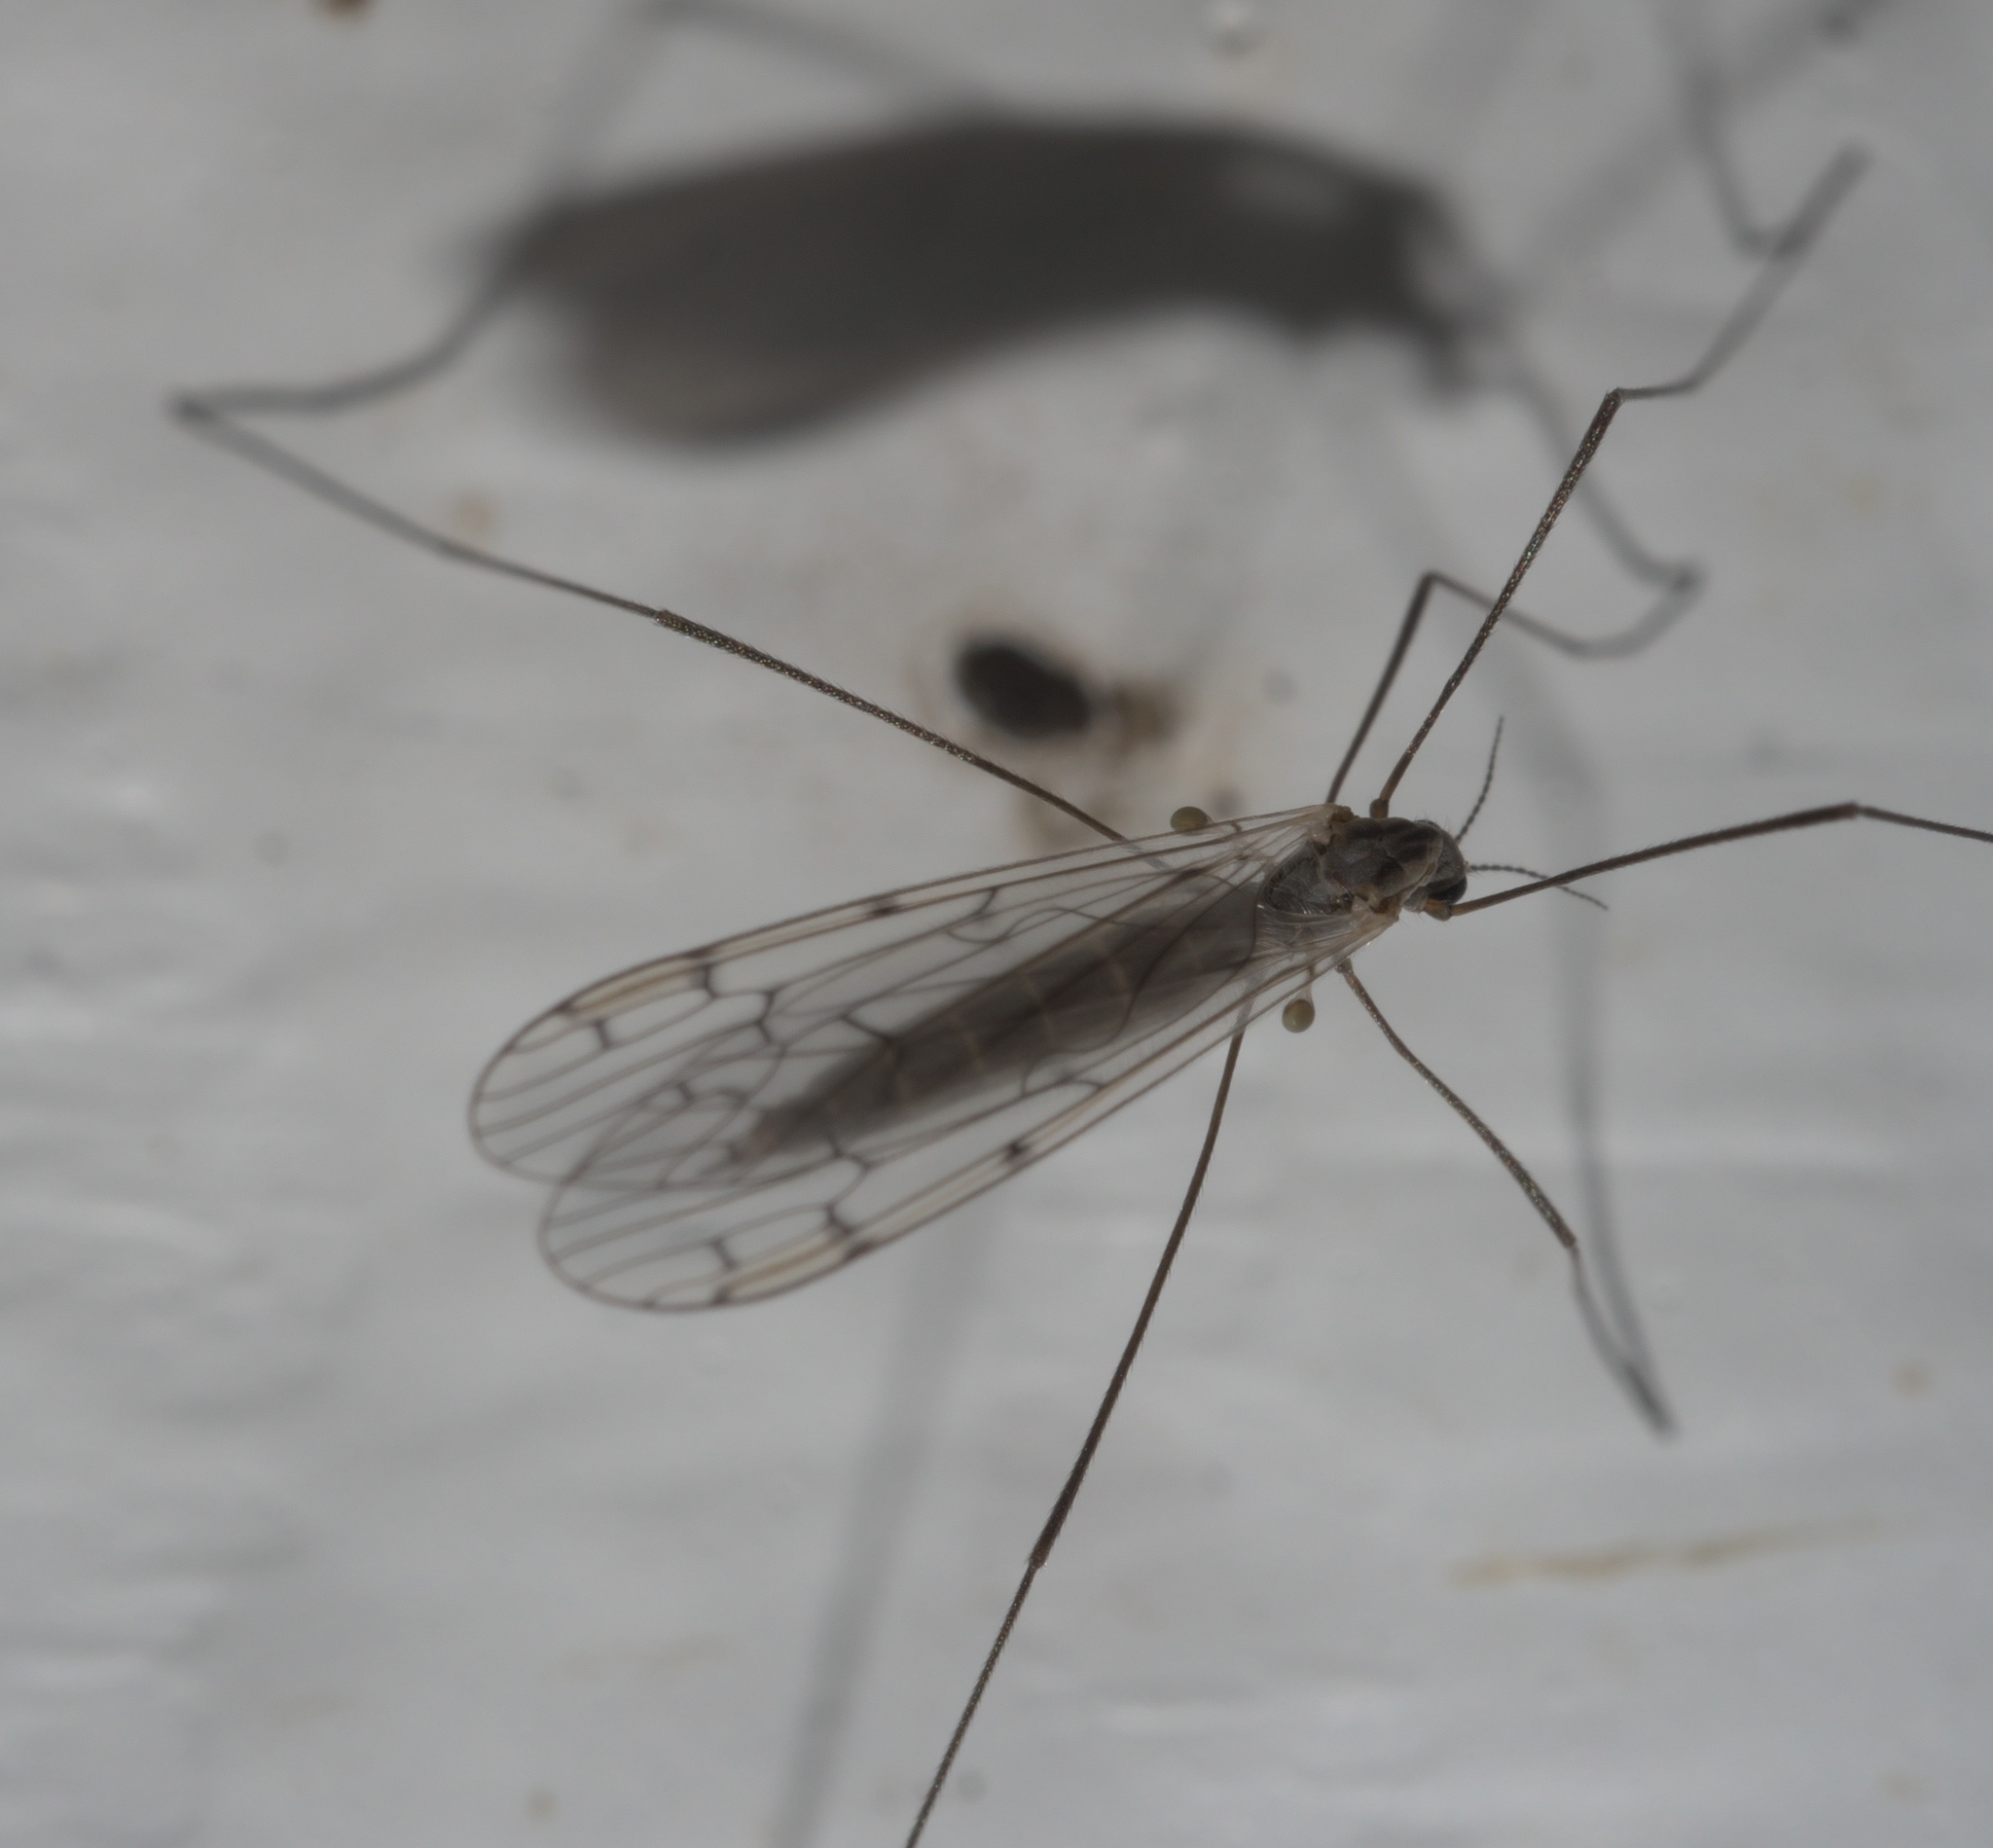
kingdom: Animalia
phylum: Arthropoda
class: Insecta
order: Diptera
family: Limoniidae
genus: Symplecta
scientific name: Symplecta cana
